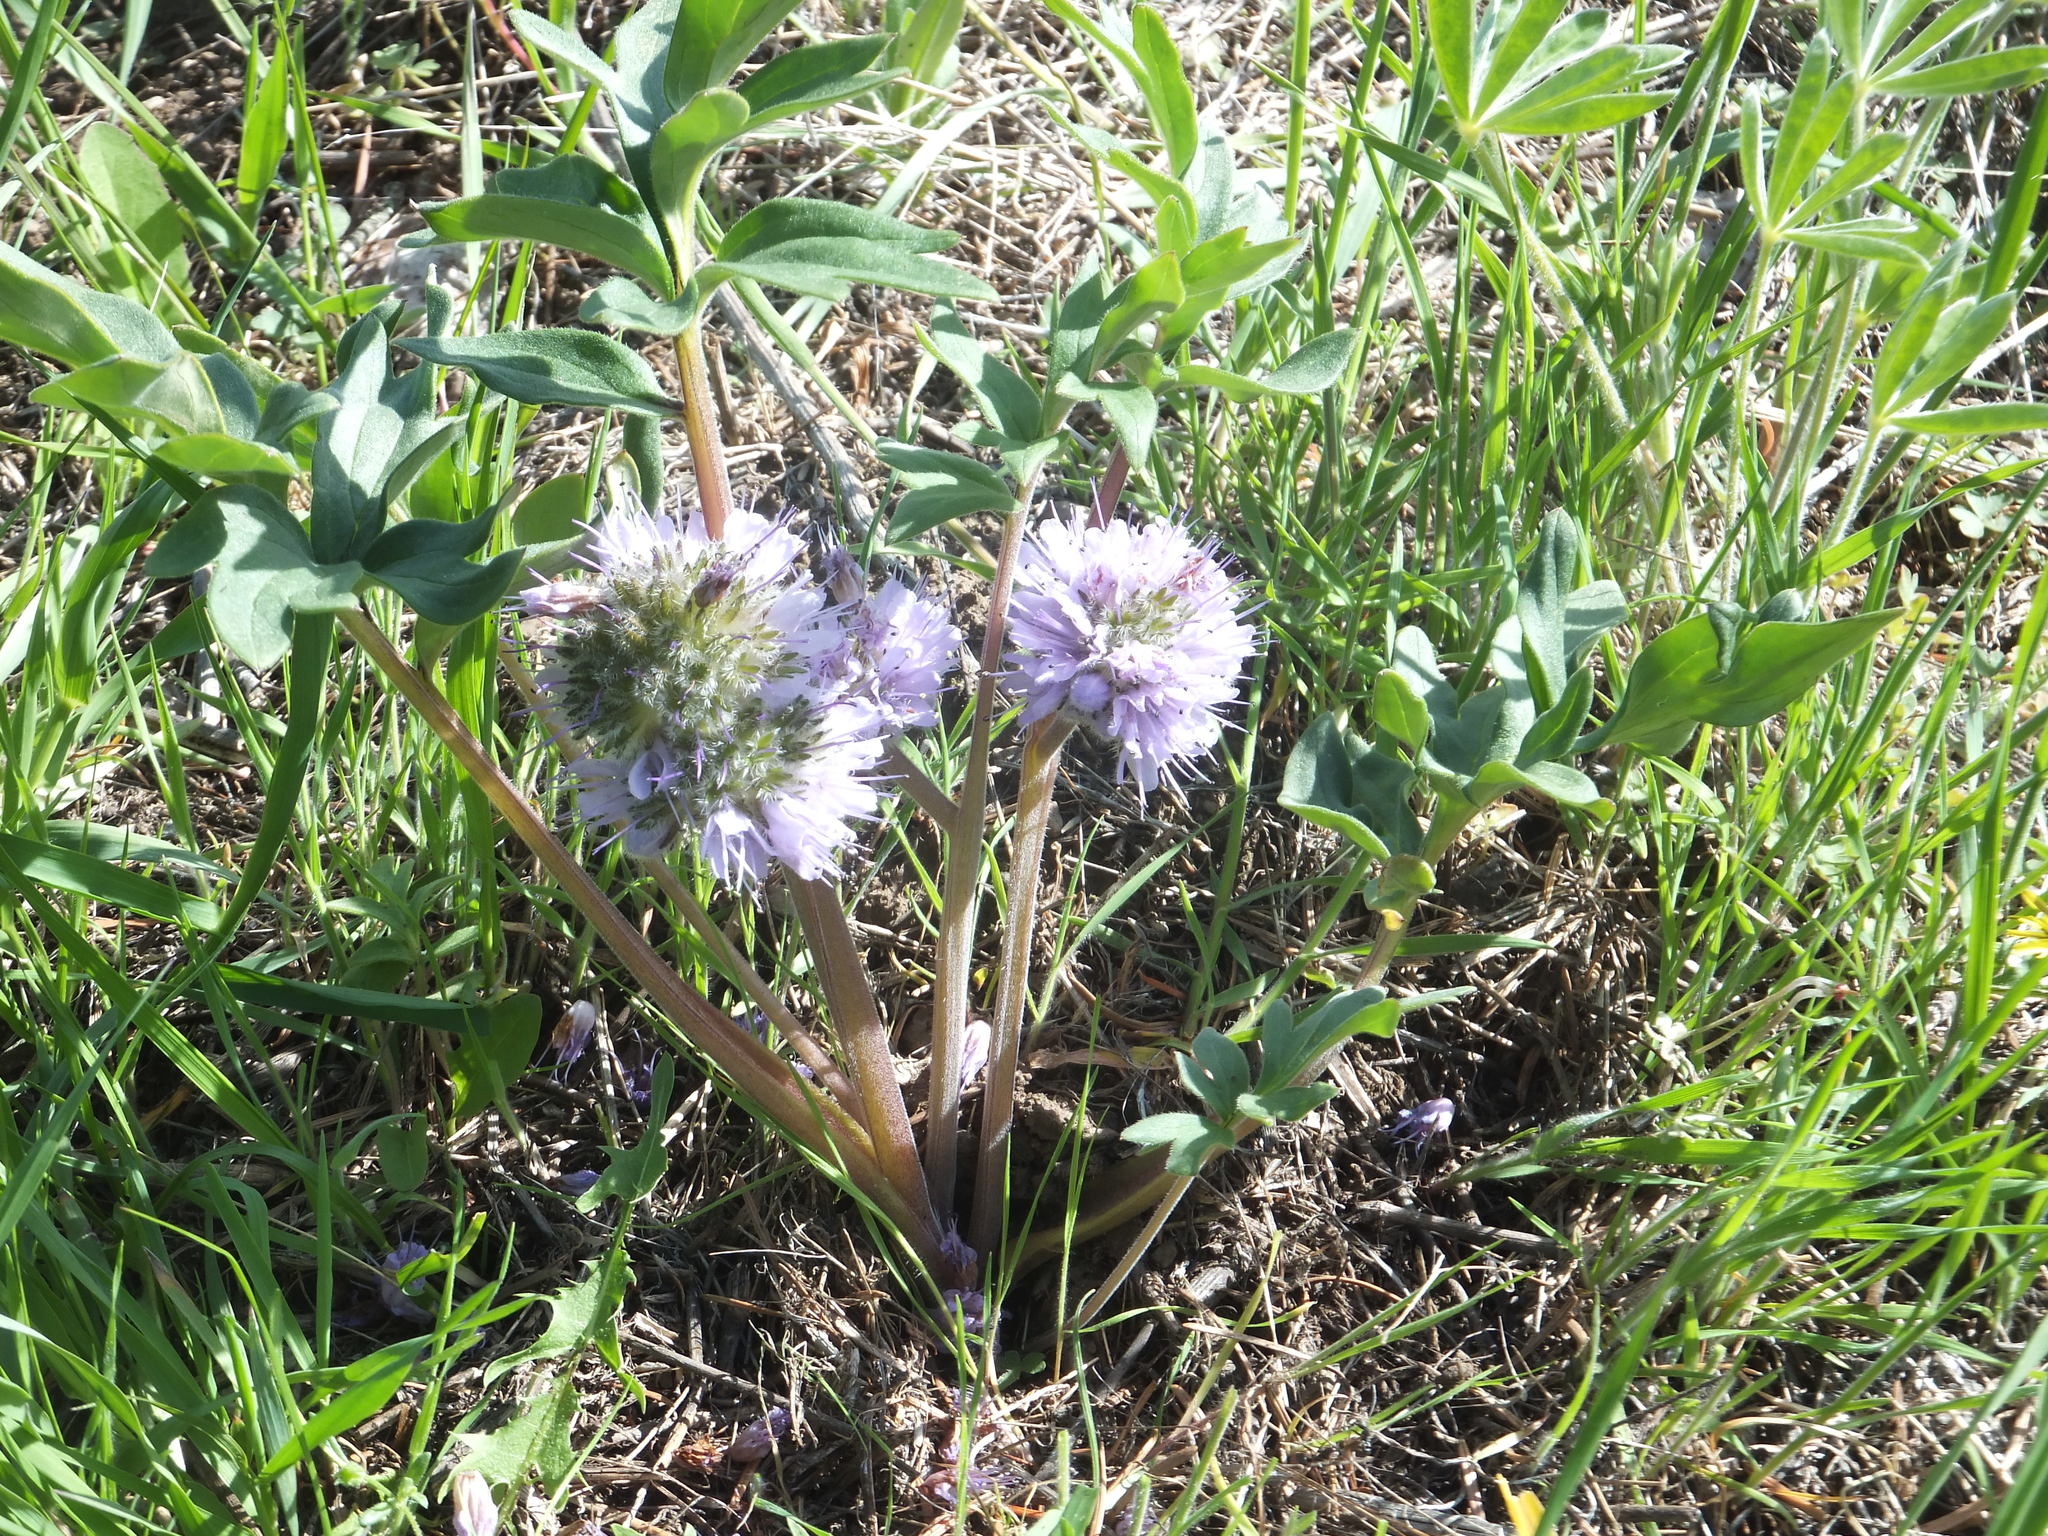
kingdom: Plantae
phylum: Tracheophyta
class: Magnoliopsida
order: Boraginales
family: Hydrophyllaceae
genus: Hydrophyllum
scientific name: Hydrophyllum capitatum
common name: Woollen-breeches
